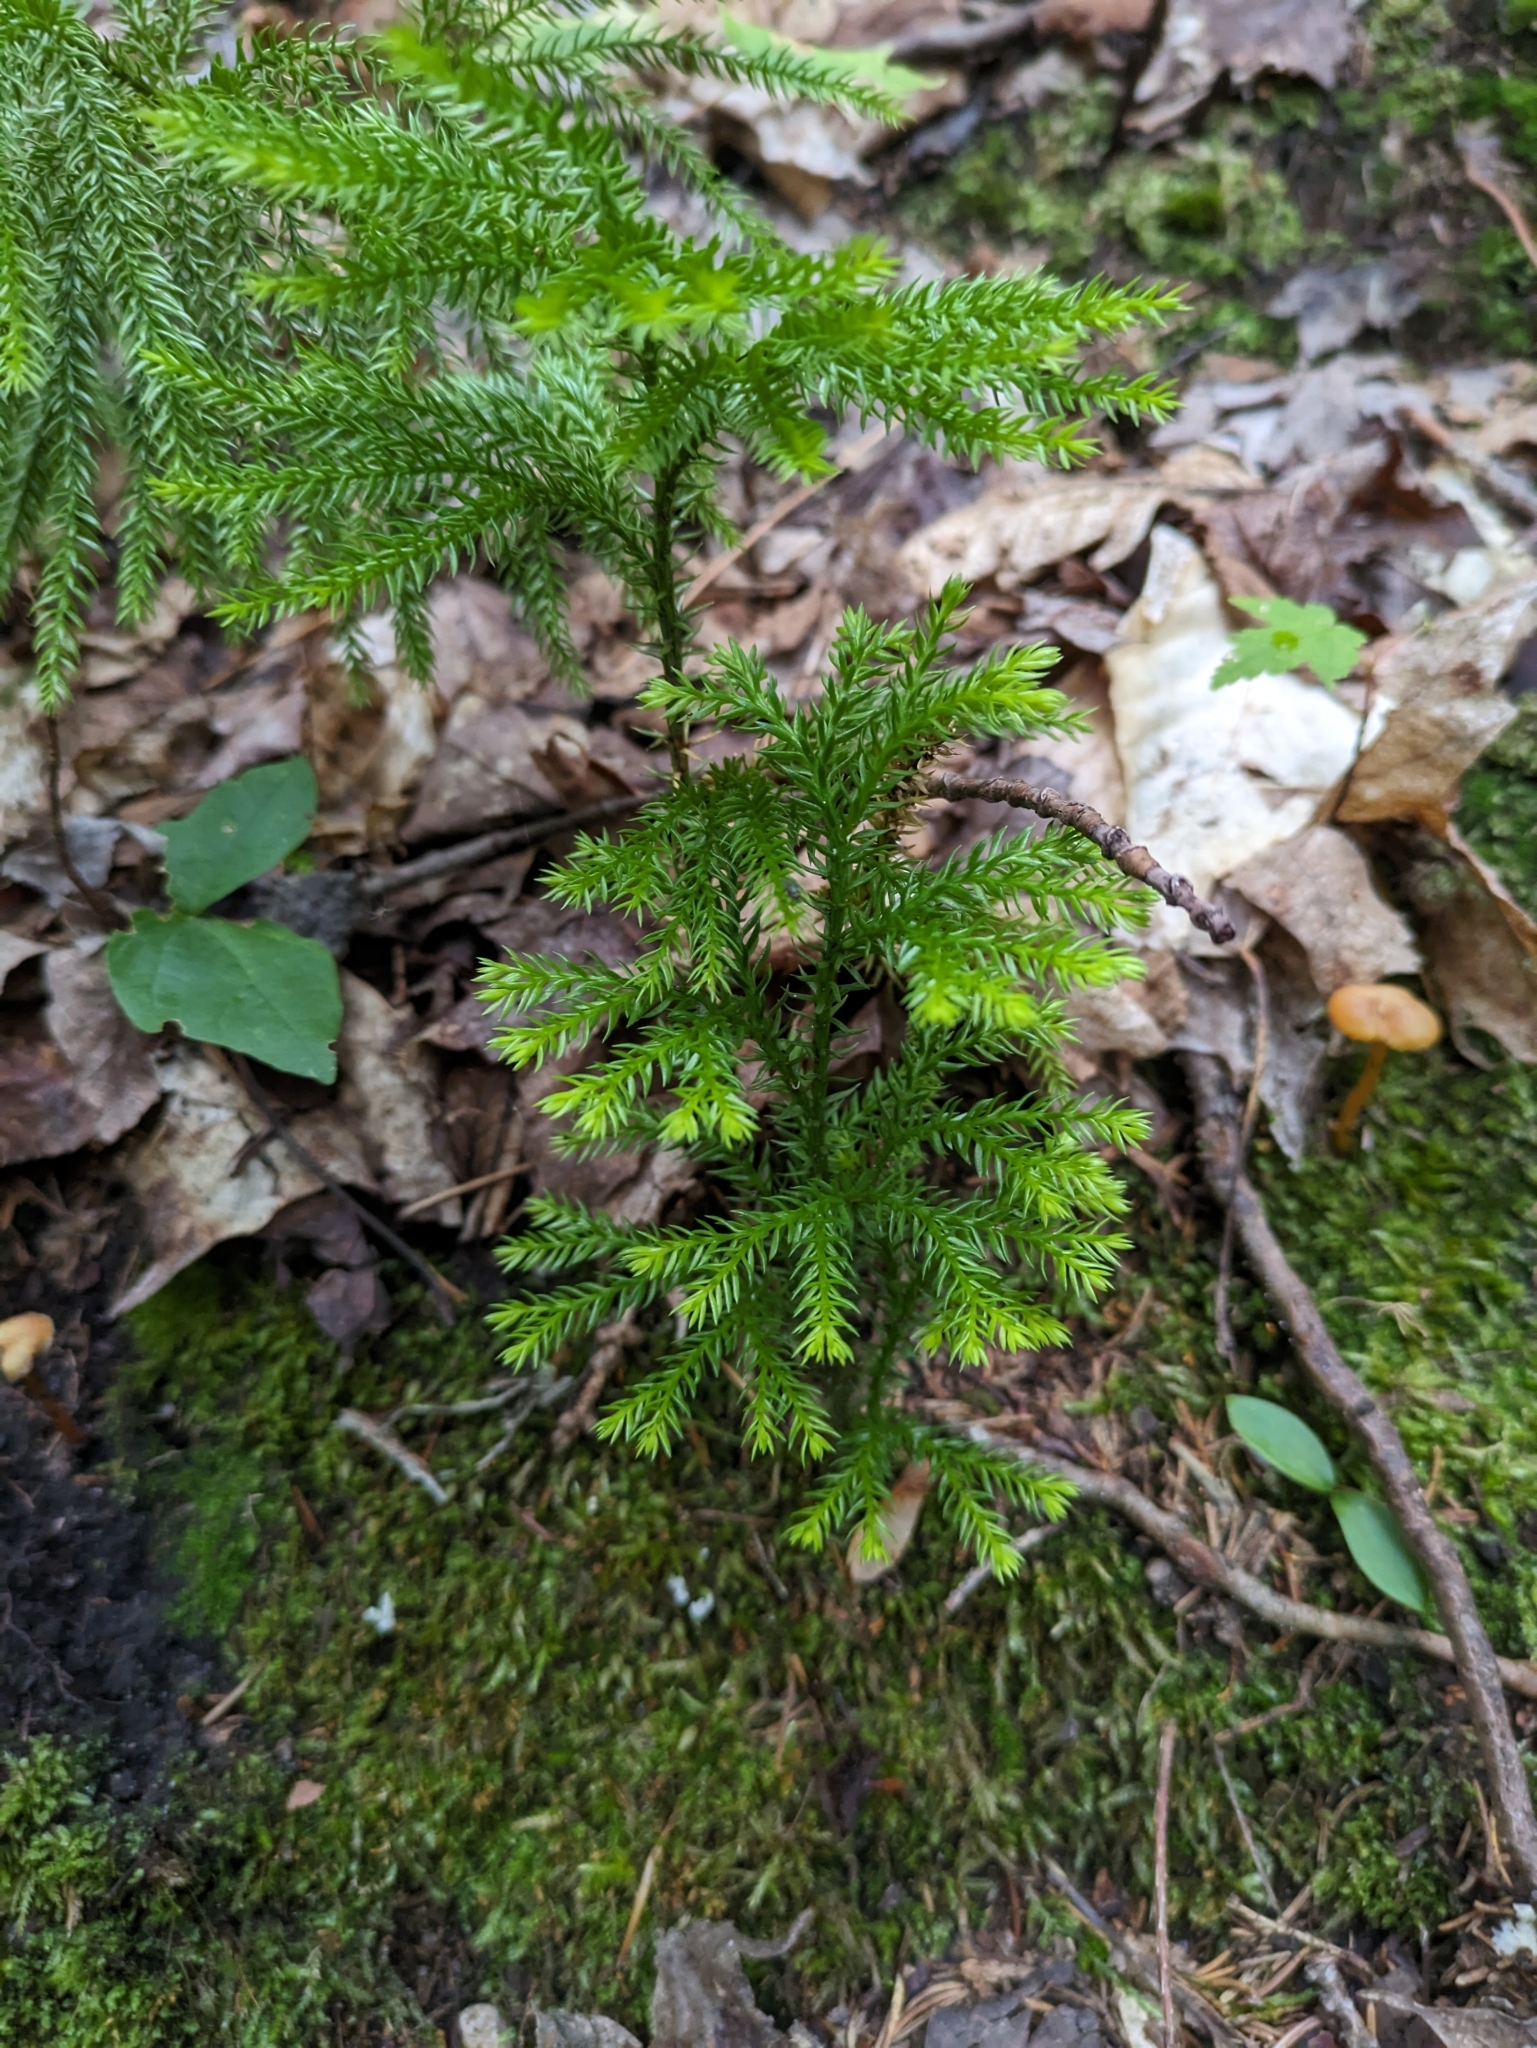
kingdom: Plantae
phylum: Tracheophyta
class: Lycopodiopsida
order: Lycopodiales
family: Lycopodiaceae
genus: Dendrolycopodium
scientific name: Dendrolycopodium dendroideum
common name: Northern tree-clubmoss
